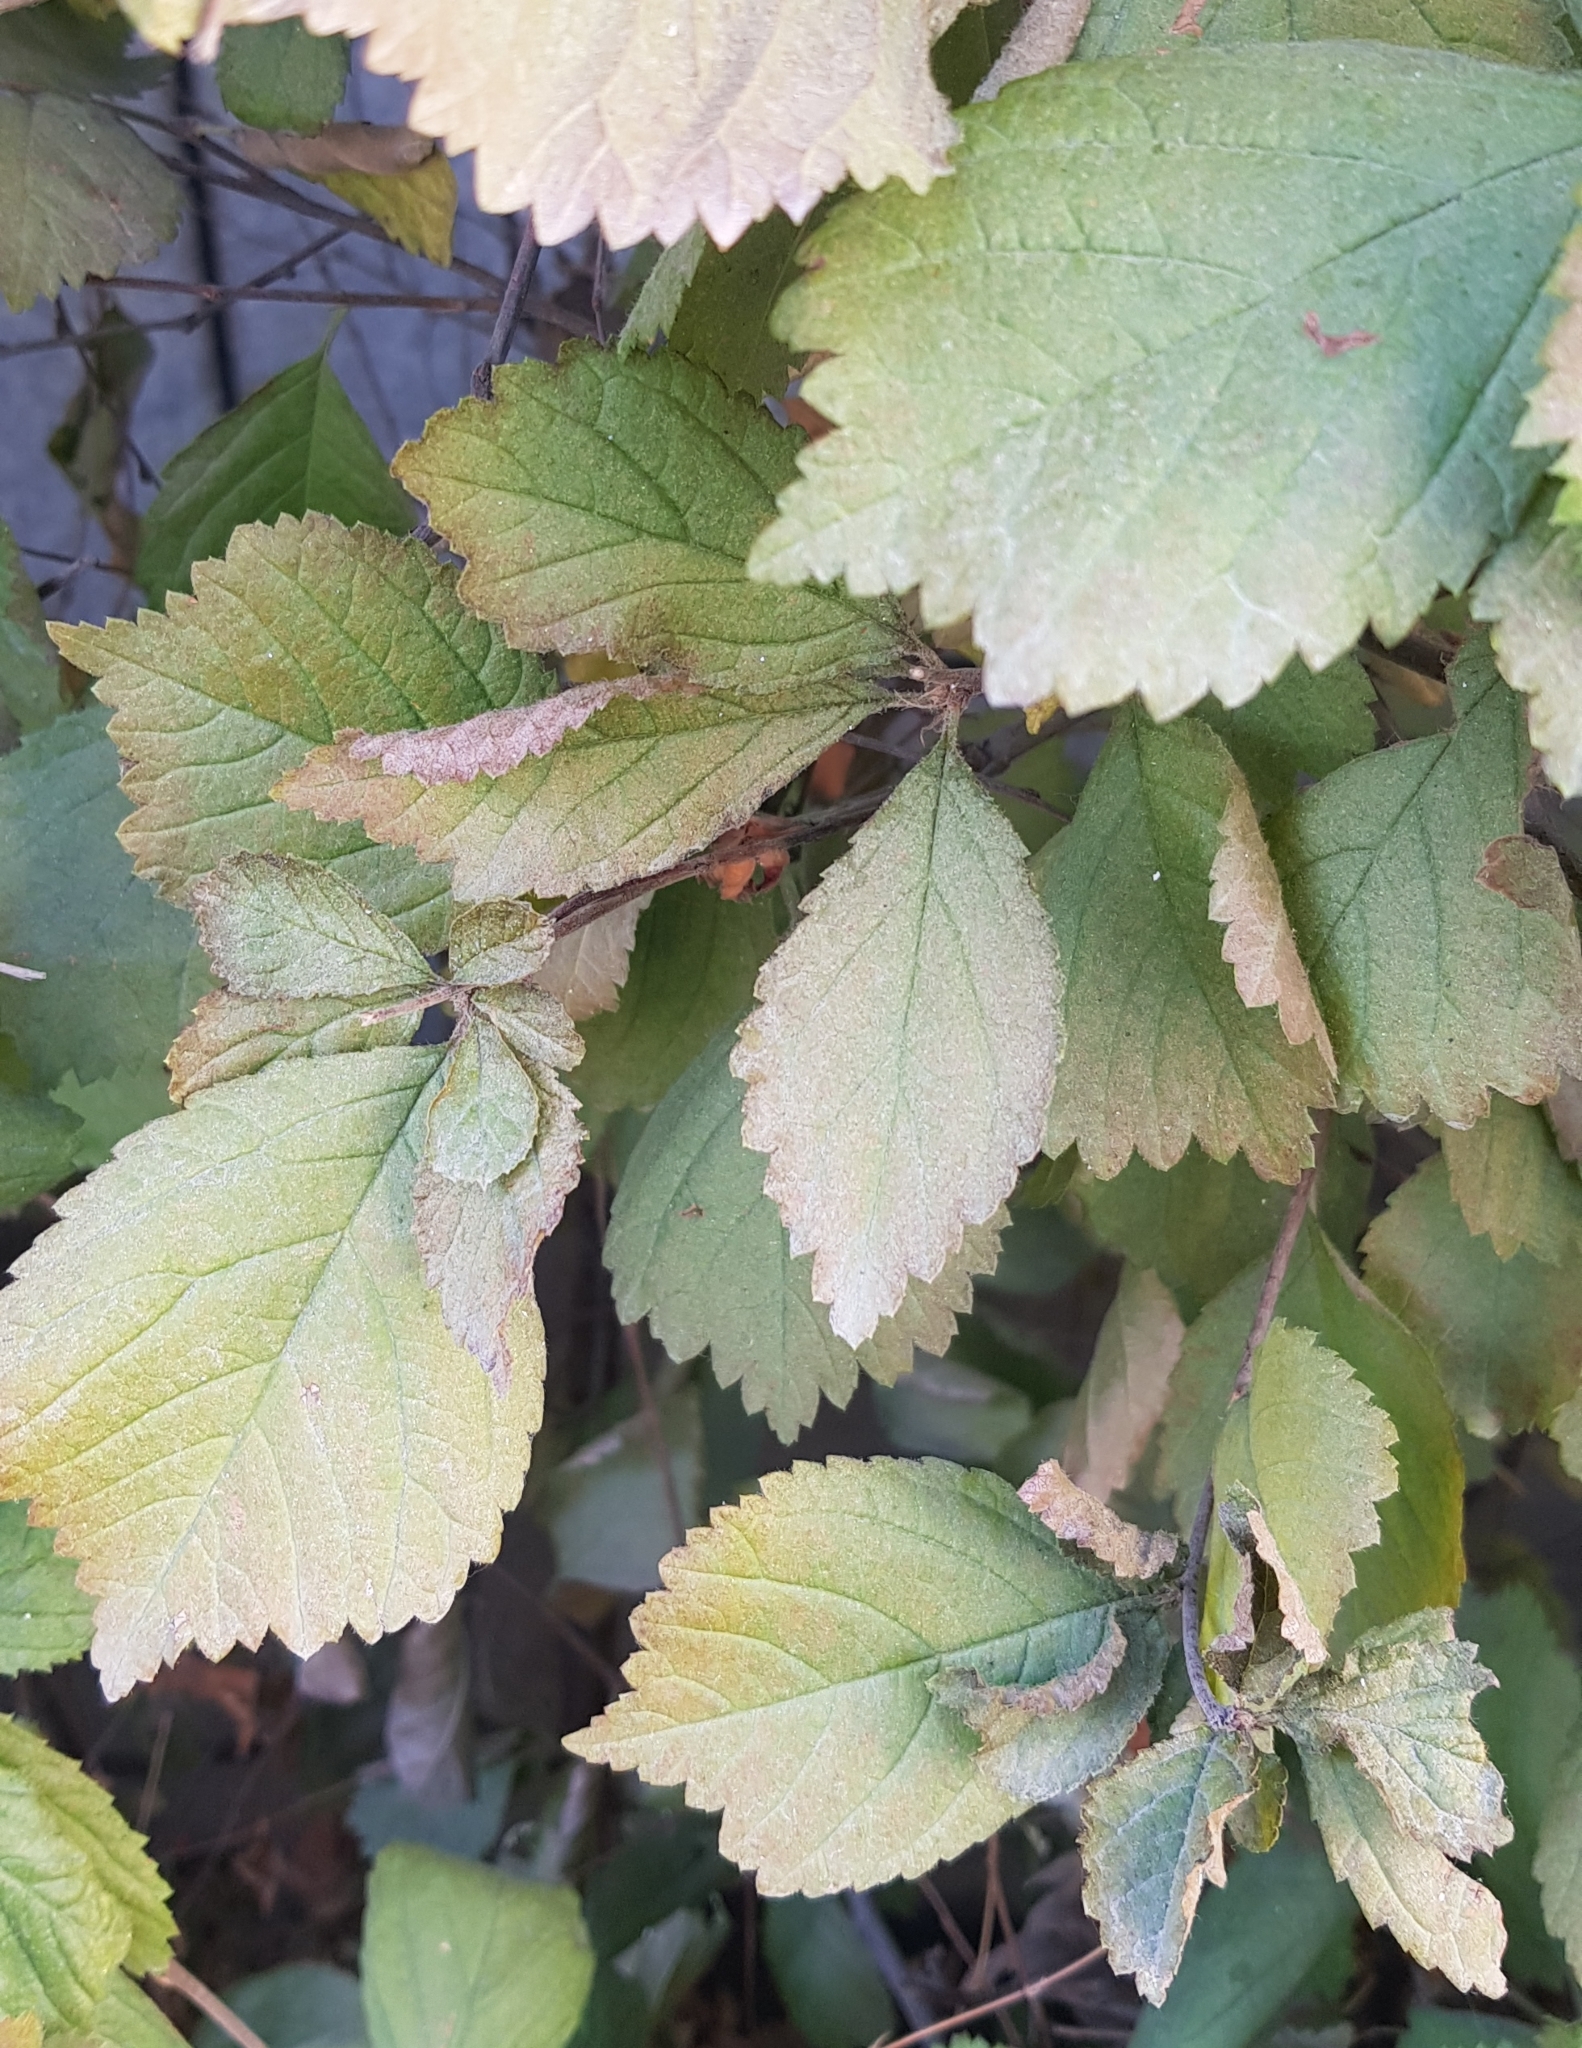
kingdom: Plantae
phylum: Tracheophyta
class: Magnoliopsida
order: Rosales
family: Rosaceae
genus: Crataegus
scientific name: Crataegus sanguinea
